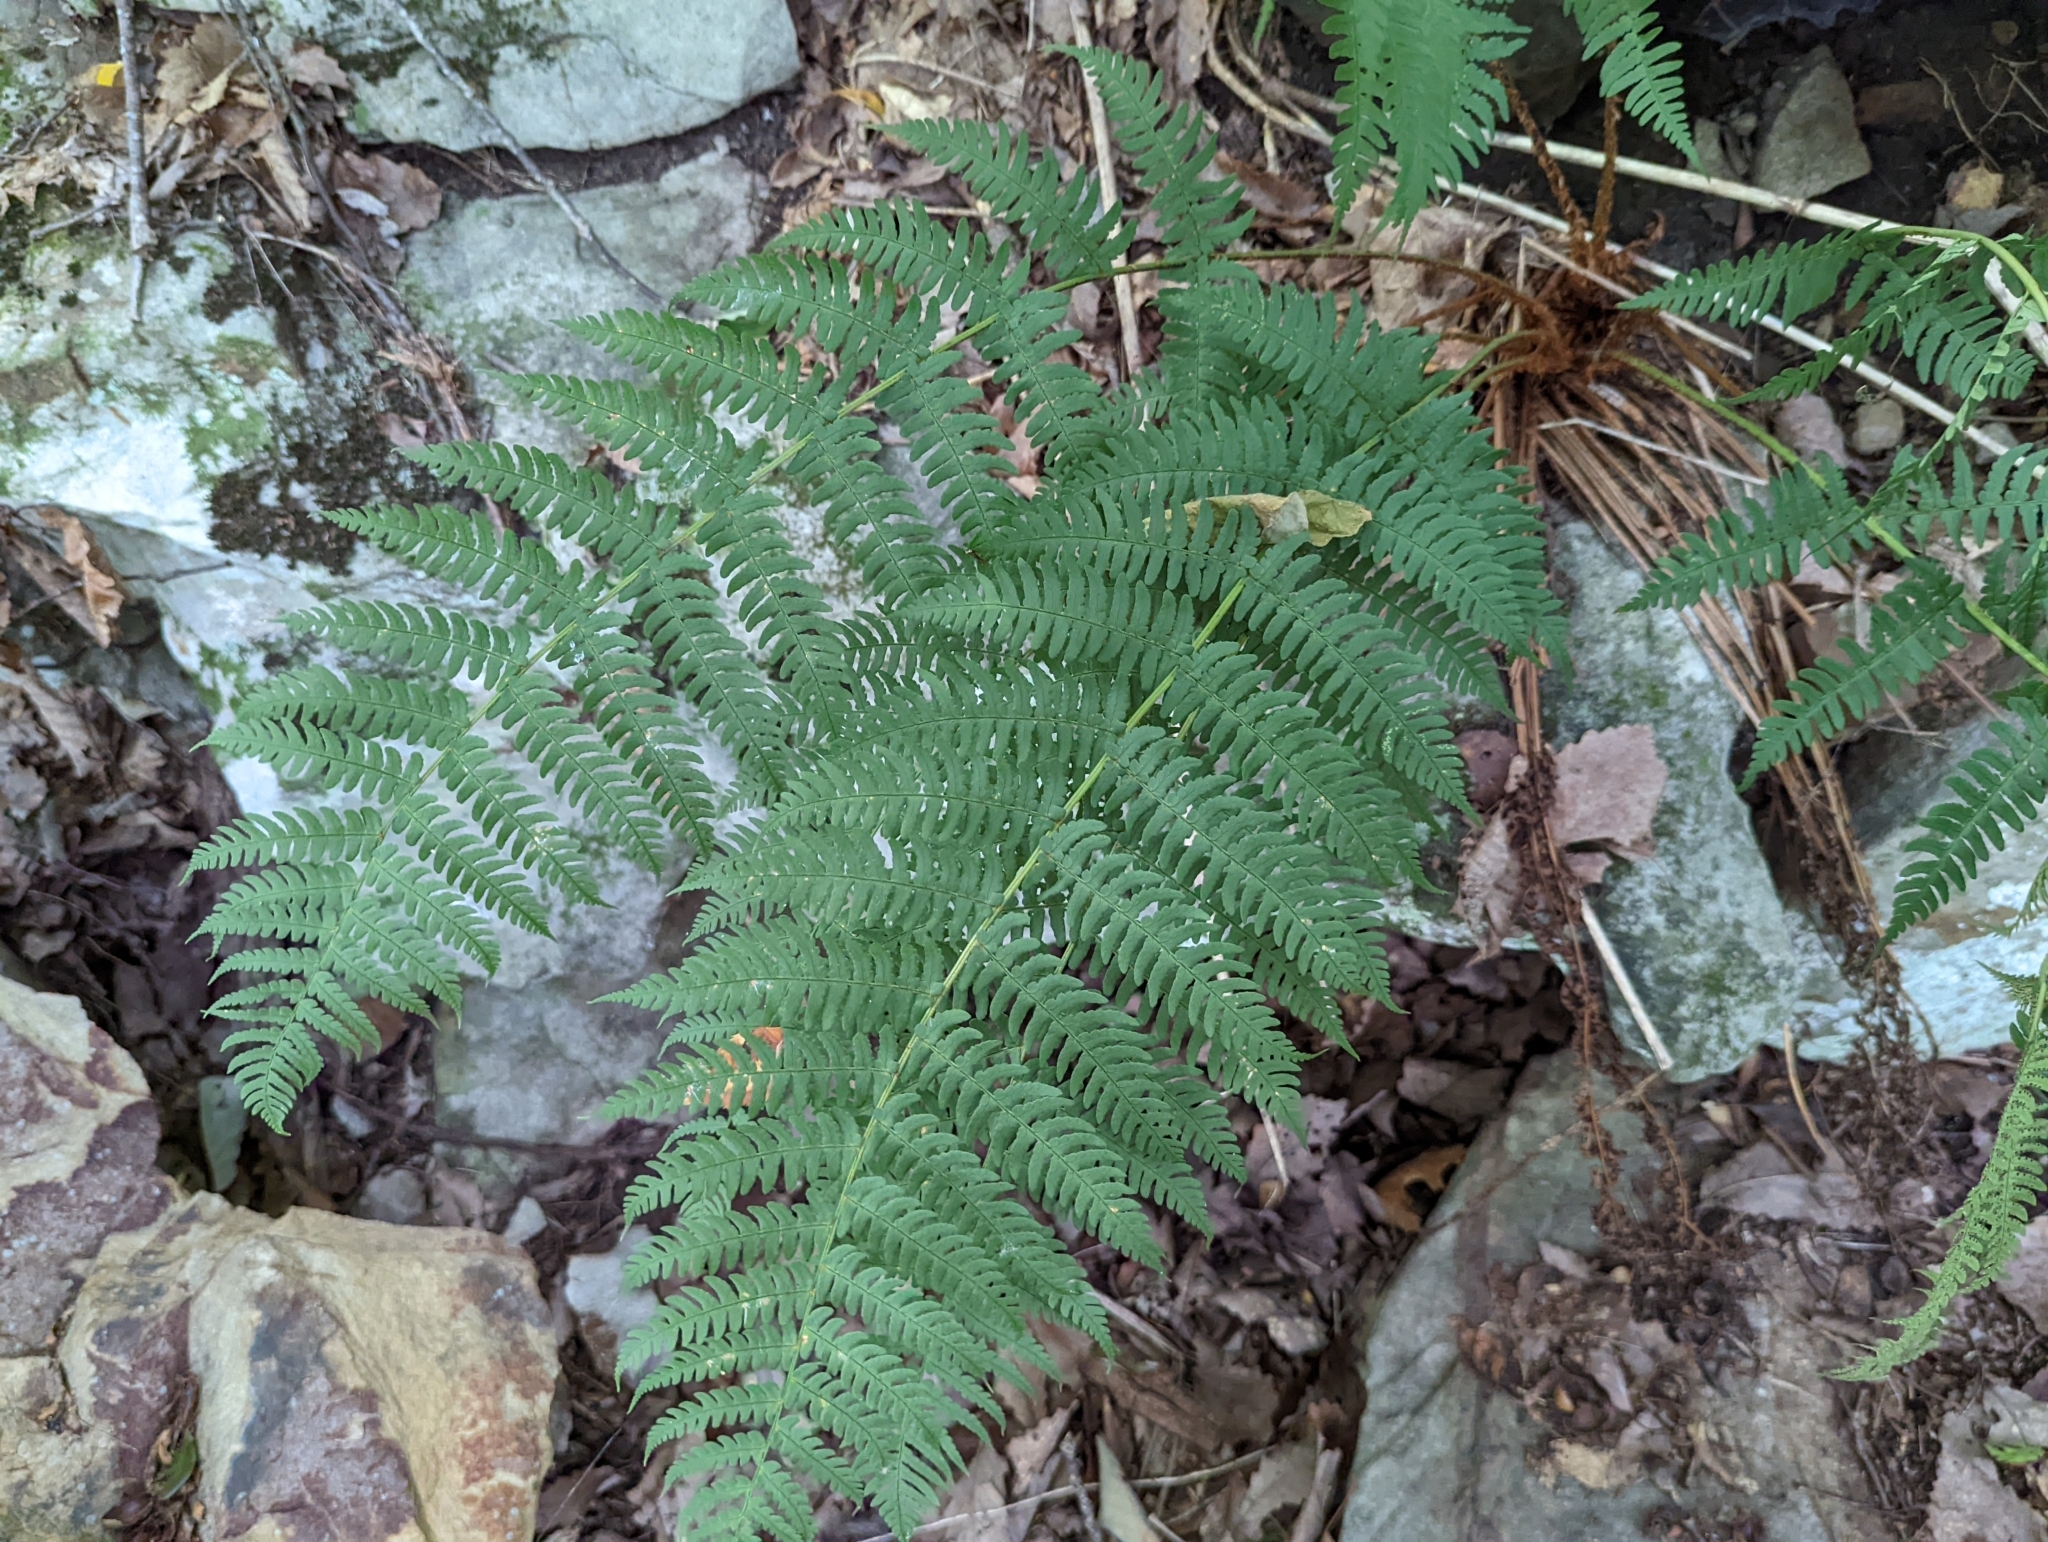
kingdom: Plantae
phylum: Tracheophyta
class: Polypodiopsida
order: Polypodiales
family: Dryopteridaceae
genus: Dryopteris
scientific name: Dryopteris marginalis
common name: Marginal wood fern
